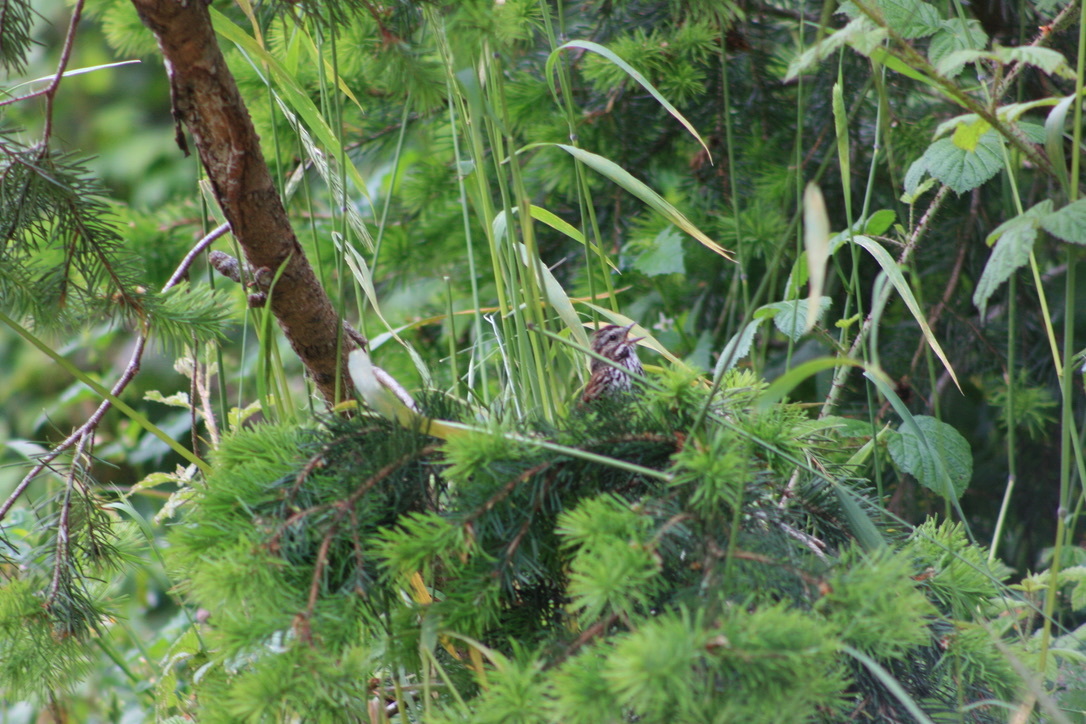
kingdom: Animalia
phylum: Chordata
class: Aves
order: Passeriformes
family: Passerellidae
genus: Melospiza
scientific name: Melospiza melodia
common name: Song sparrow
